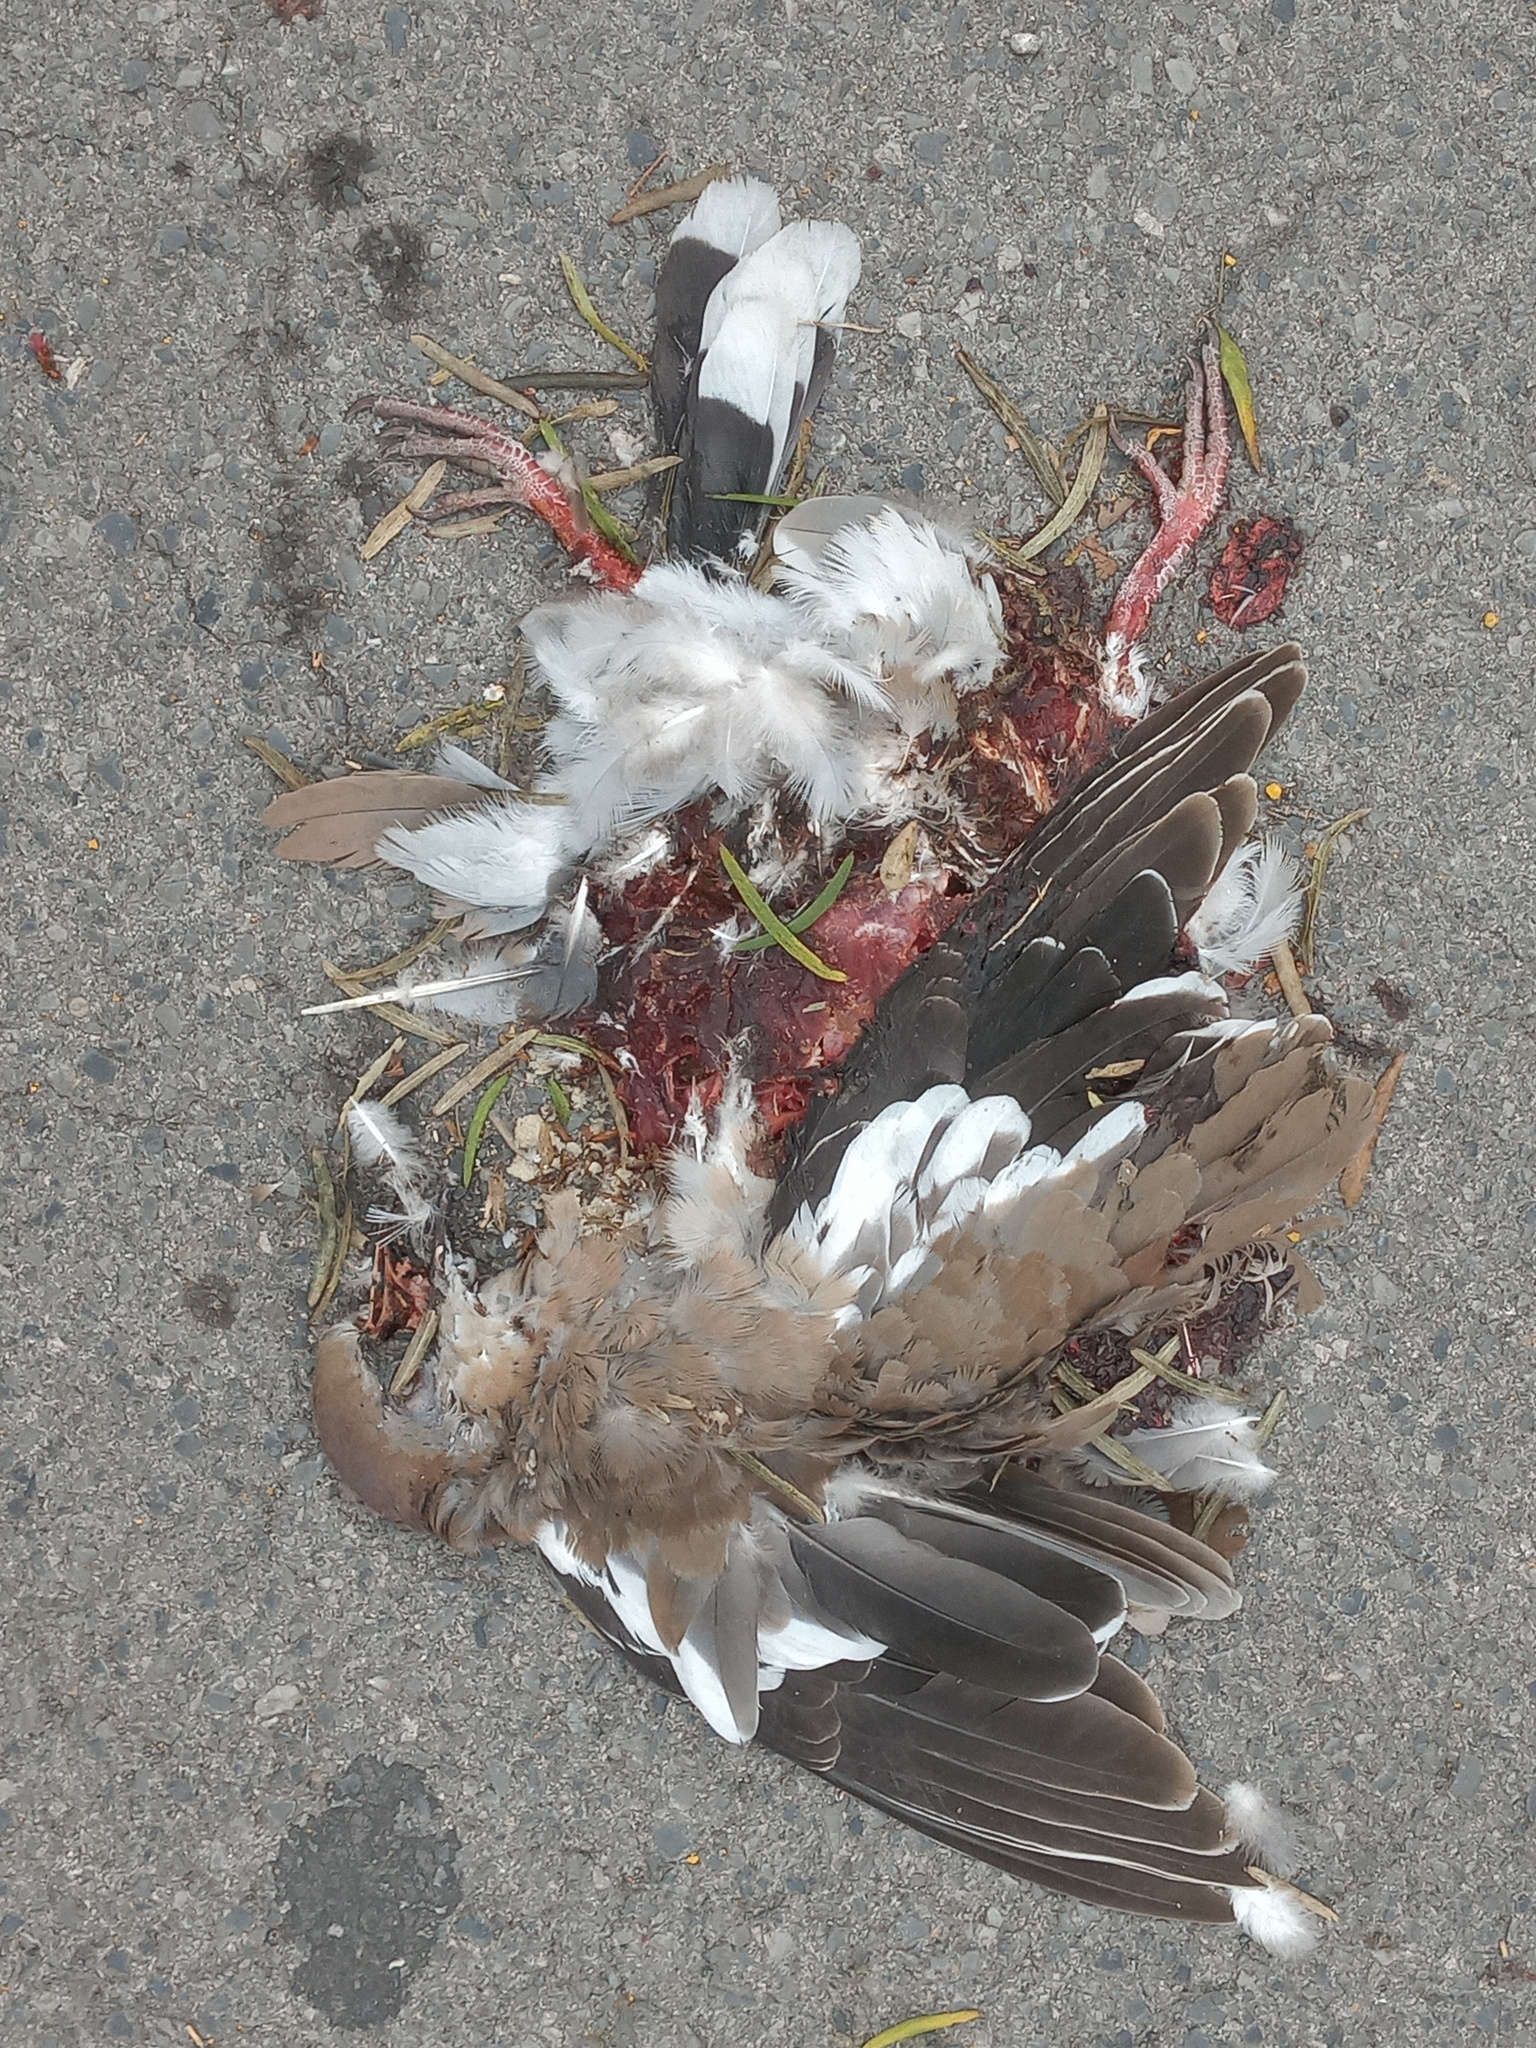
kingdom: Animalia
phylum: Chordata
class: Aves
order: Columbiformes
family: Columbidae
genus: Zenaida
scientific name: Zenaida asiatica
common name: White-winged dove
